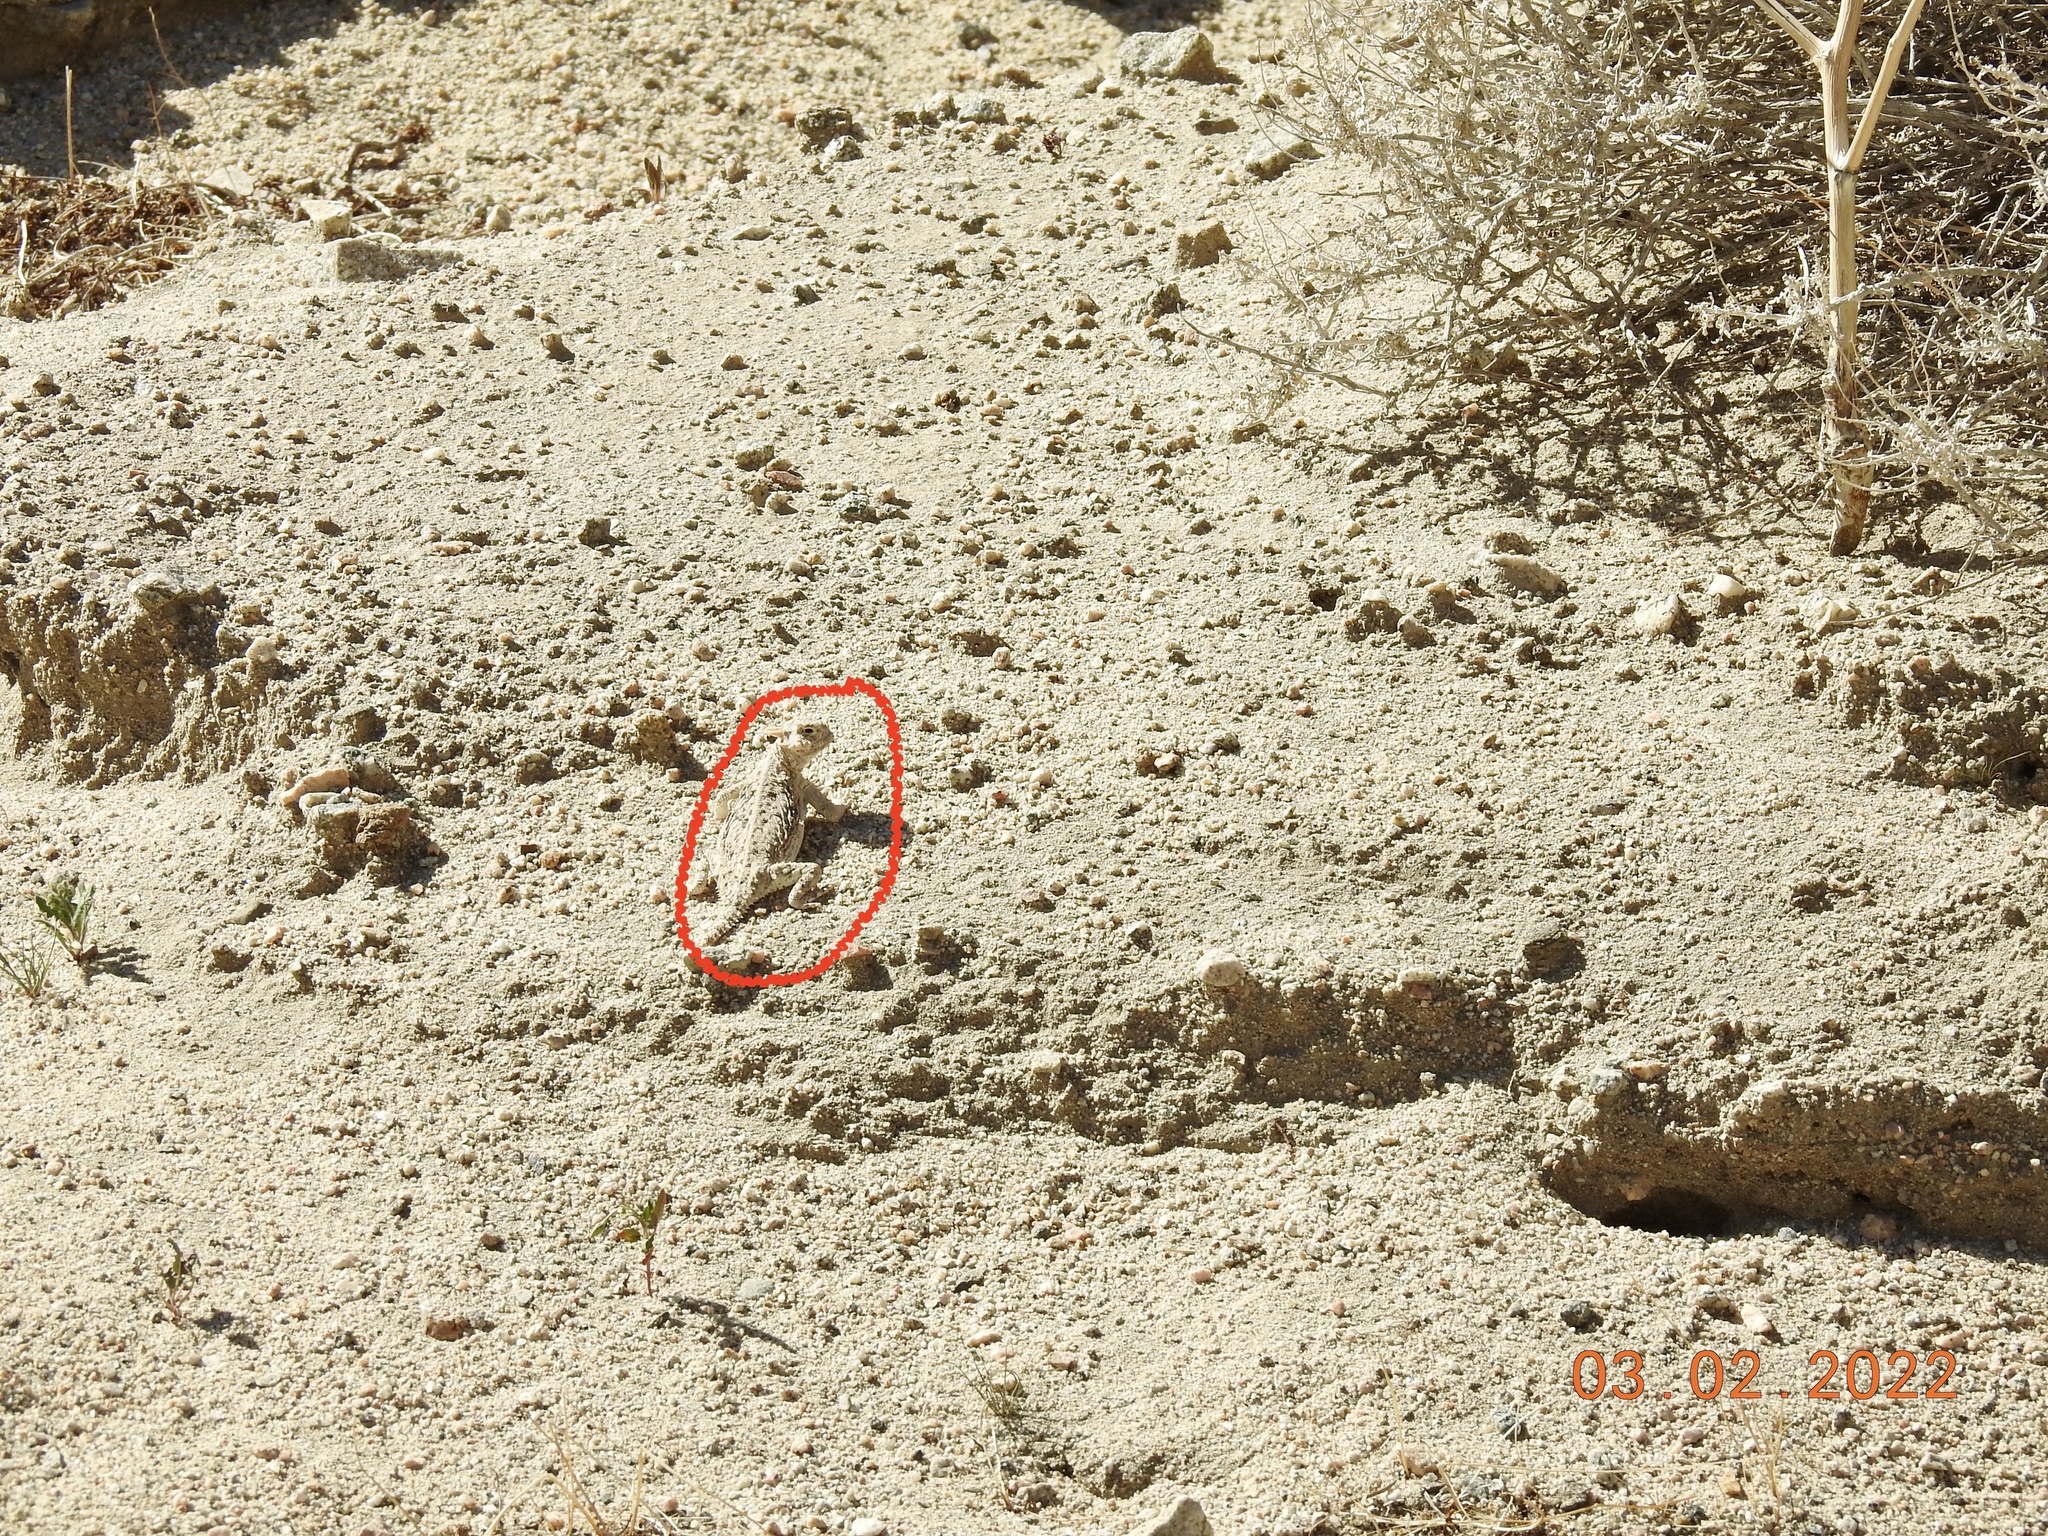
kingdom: Animalia
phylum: Chordata
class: Squamata
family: Phrynosomatidae
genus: Phrynosoma
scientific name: Phrynosoma platyrhinos
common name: Desert horned lizard
